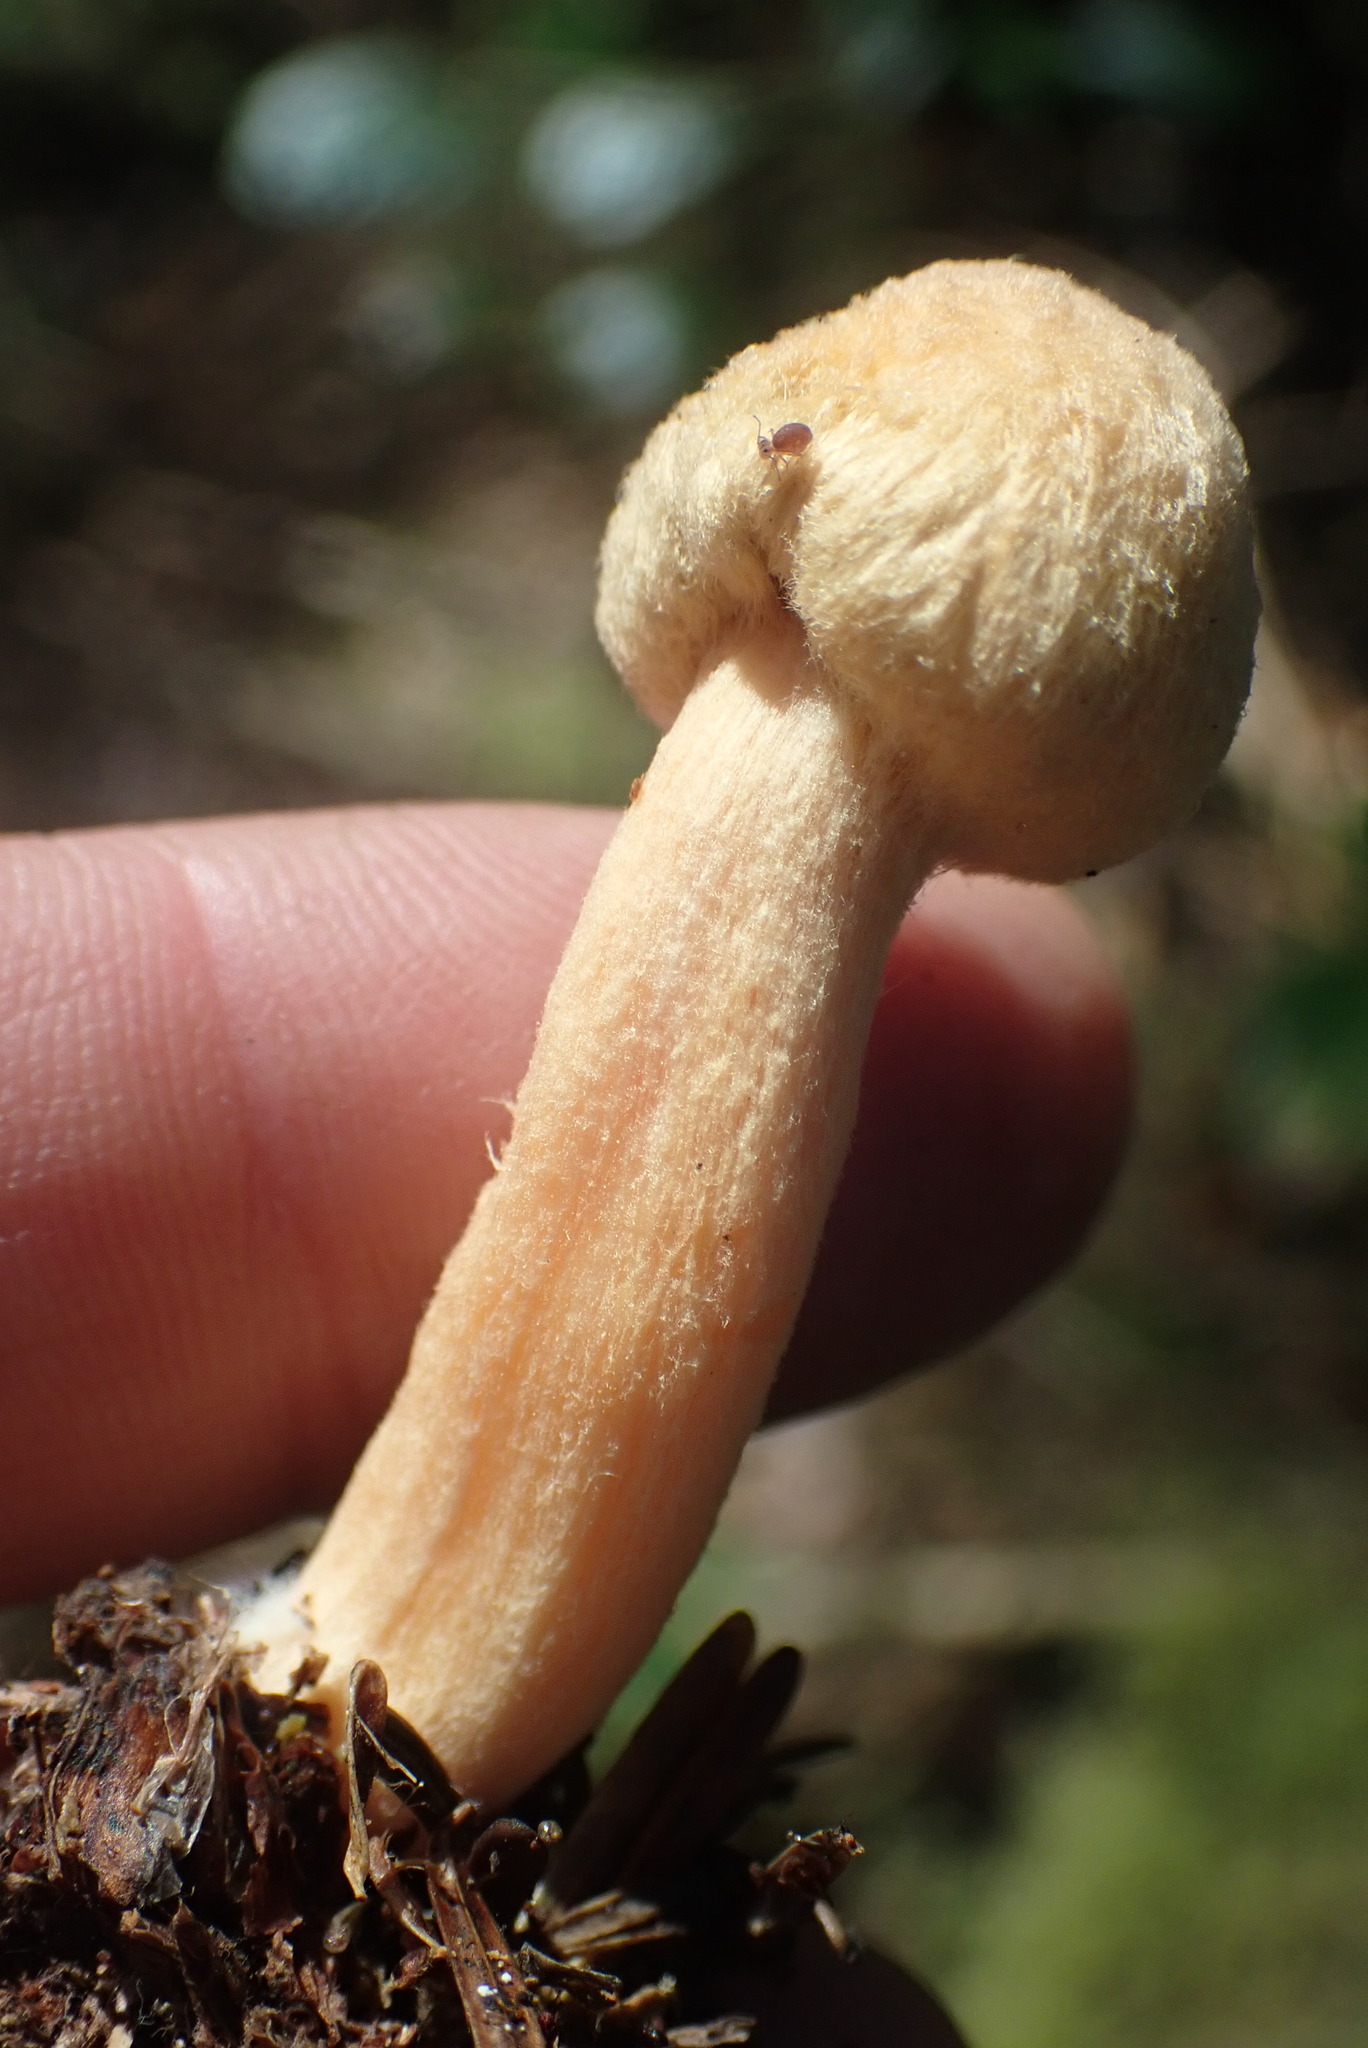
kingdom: Fungi
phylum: Basidiomycota
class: Agaricomycetes
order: Boletales
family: Gomphidiaceae
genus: Chroogomphus
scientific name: Chroogomphus tomentosus
